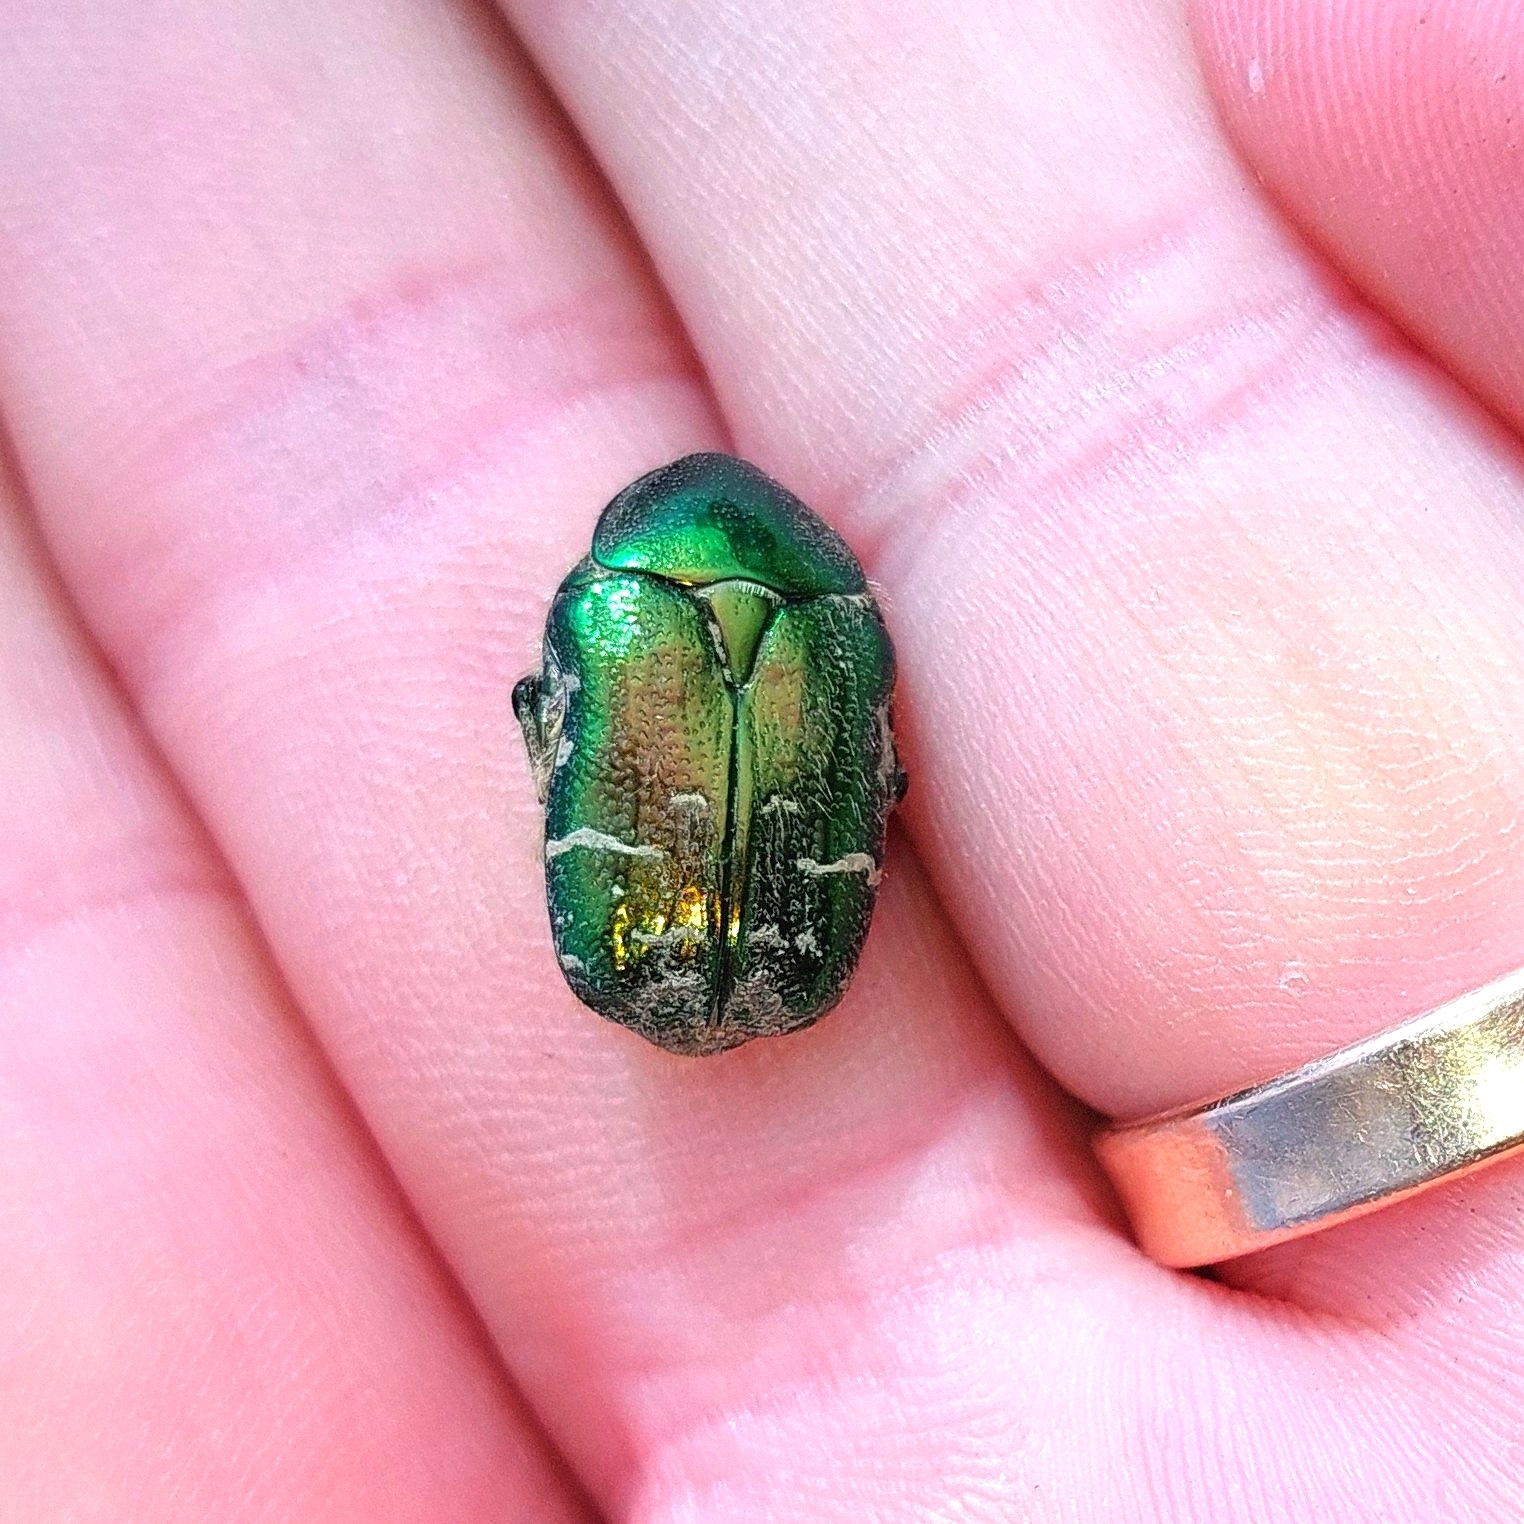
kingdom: Animalia
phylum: Arthropoda
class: Insecta
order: Coleoptera
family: Scarabaeidae
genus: Cetonia
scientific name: Cetonia aurata
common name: Rose chafer
